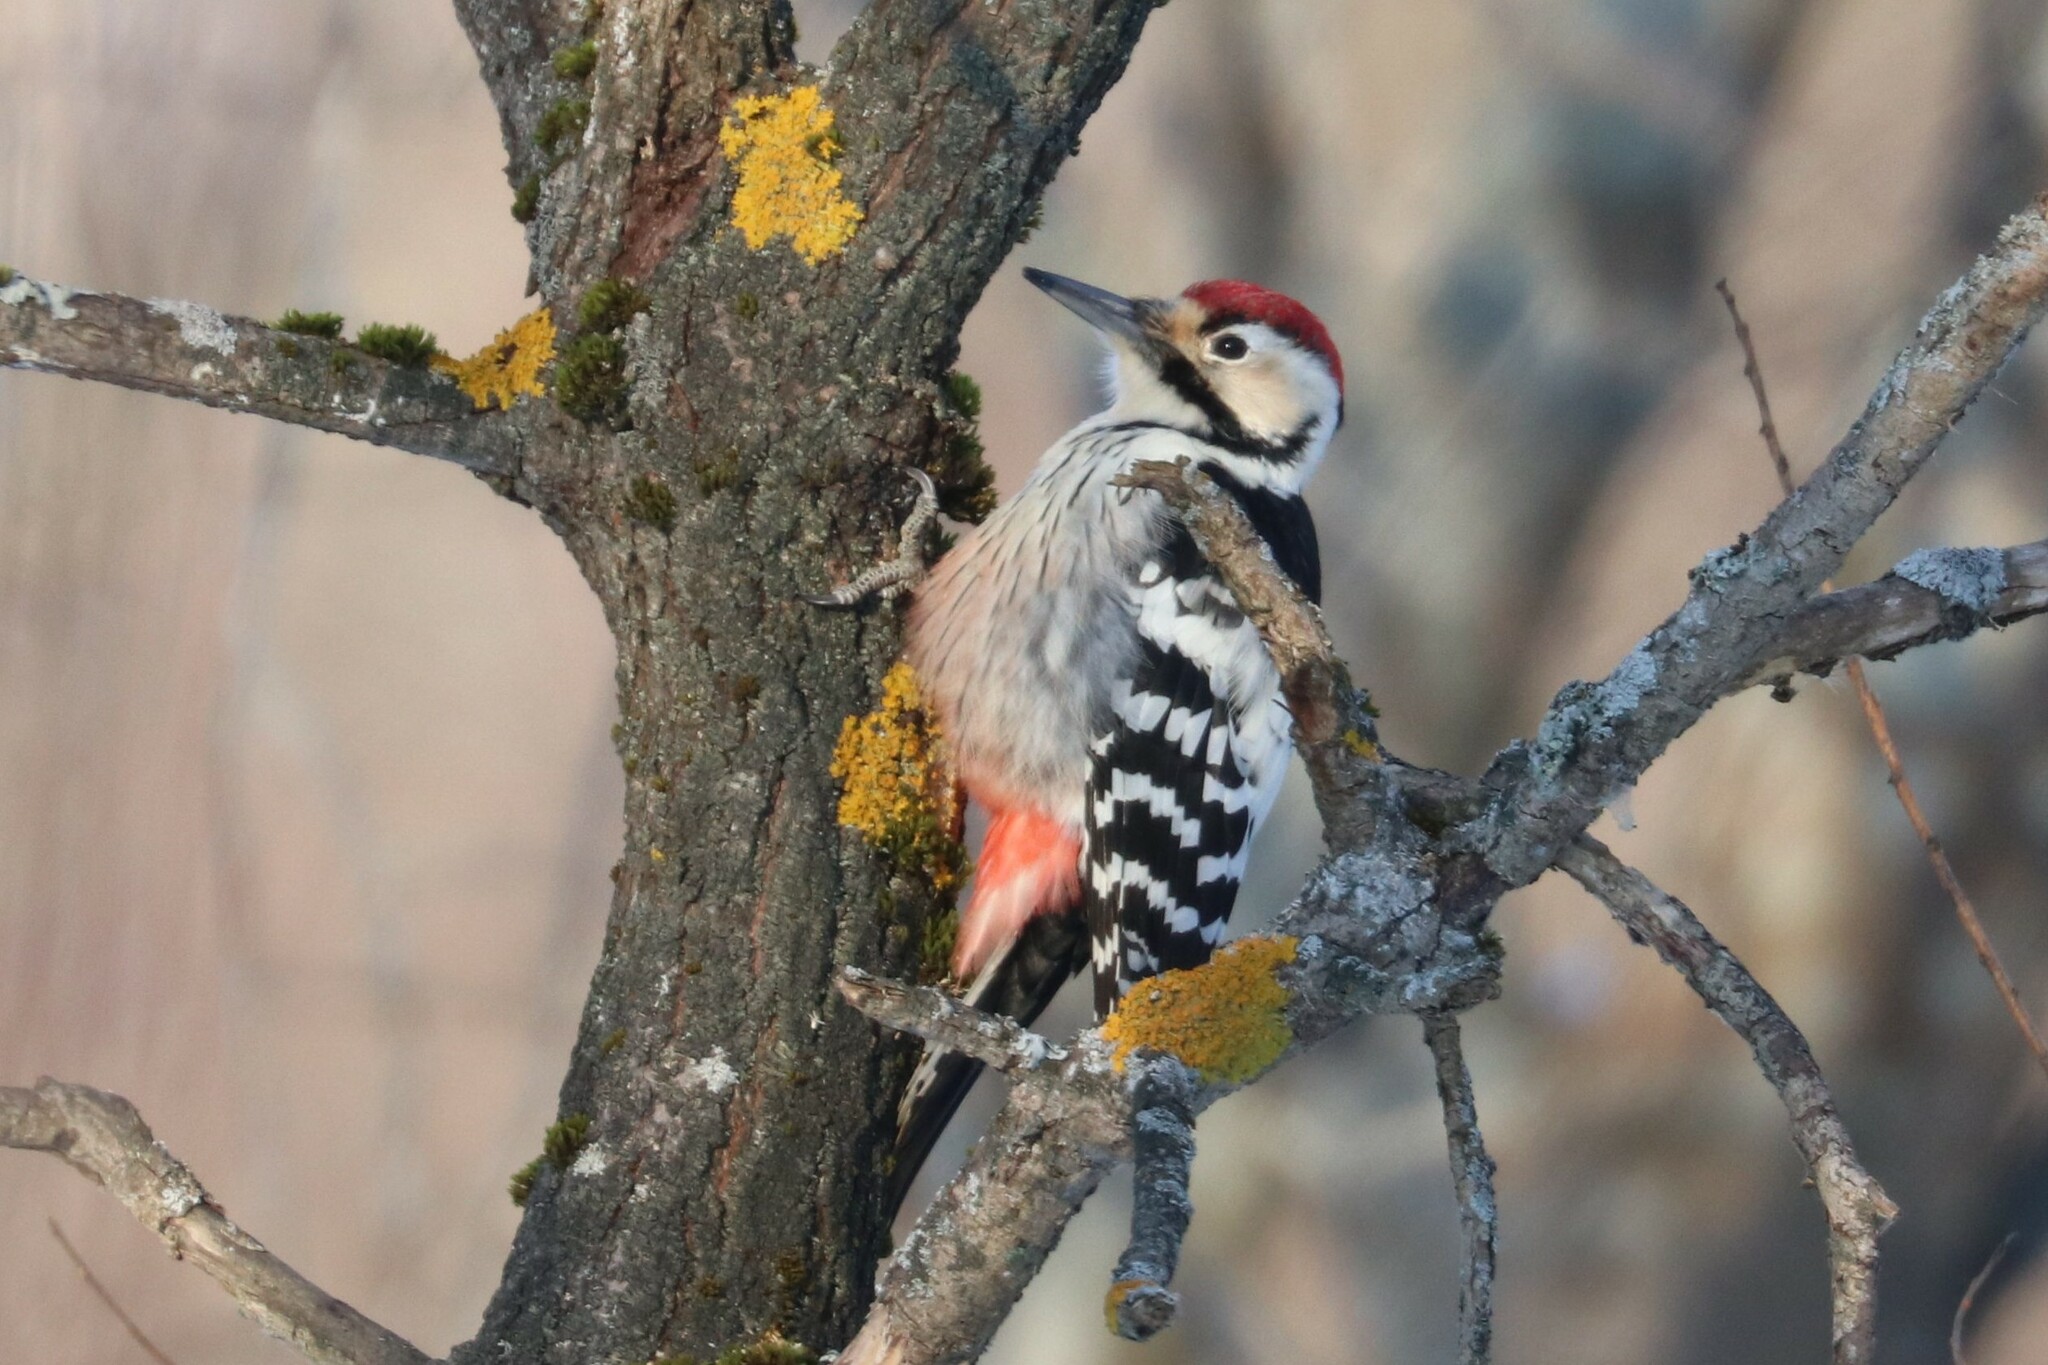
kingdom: Animalia
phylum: Chordata
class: Aves
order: Piciformes
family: Picidae
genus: Dendrocopos
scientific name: Dendrocopos leucotos
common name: White-backed woodpecker
